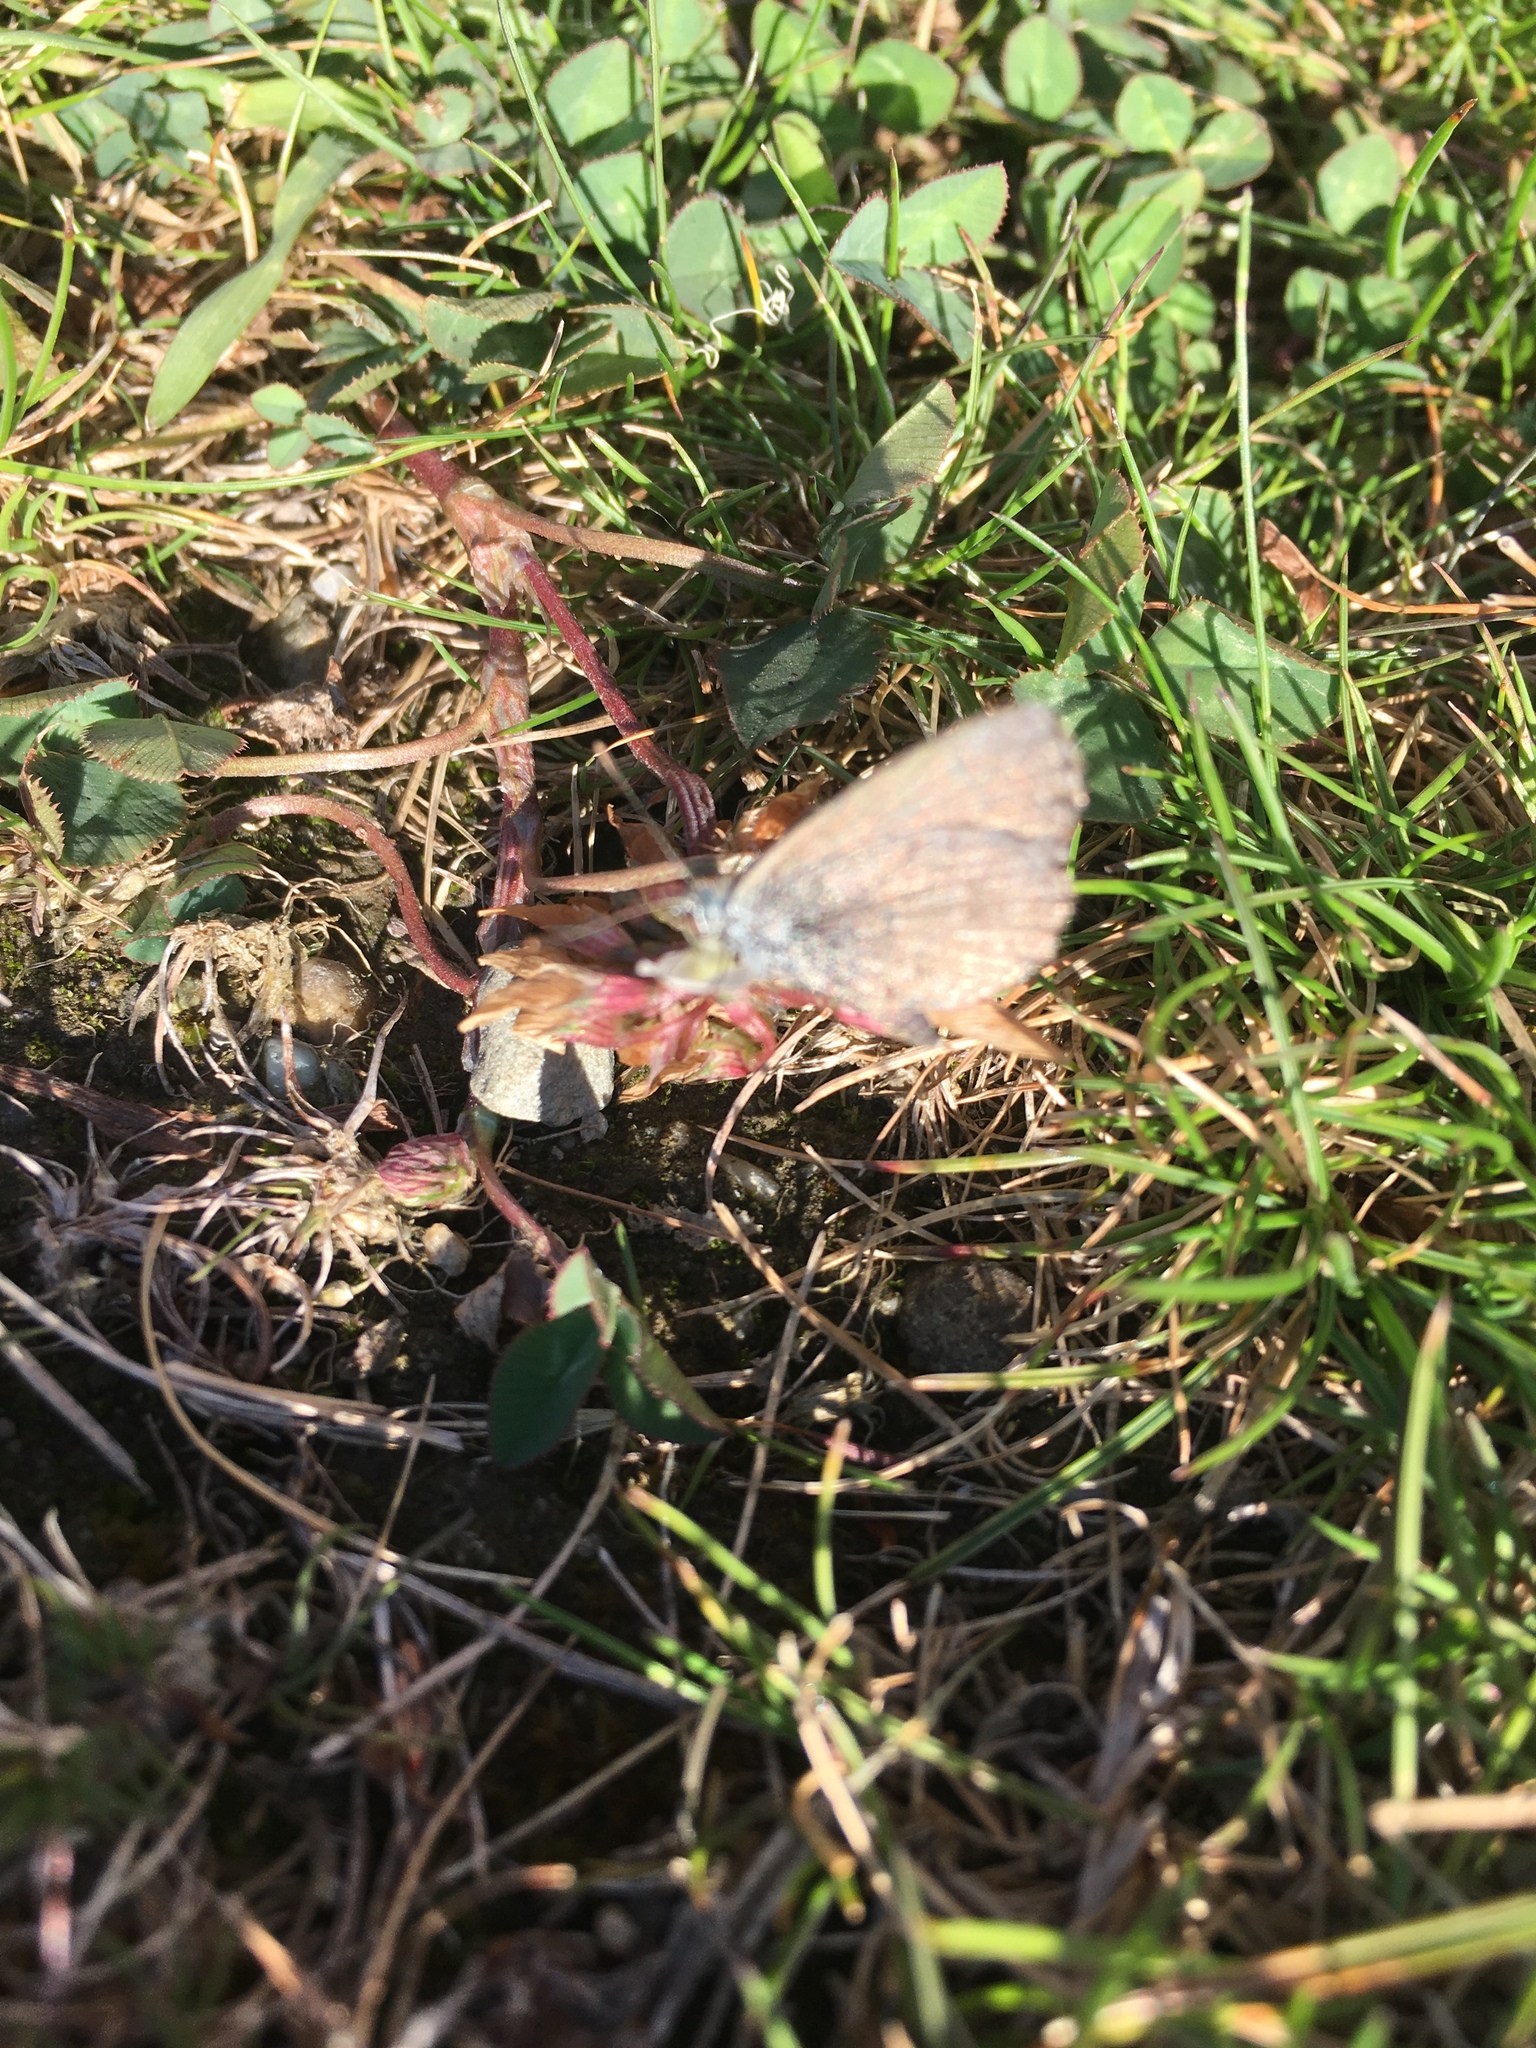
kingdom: Animalia
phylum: Arthropoda
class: Insecta
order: Lepidoptera
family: Lycaenidae
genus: Zizina
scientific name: Zizina oxleyi
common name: Southern blue
